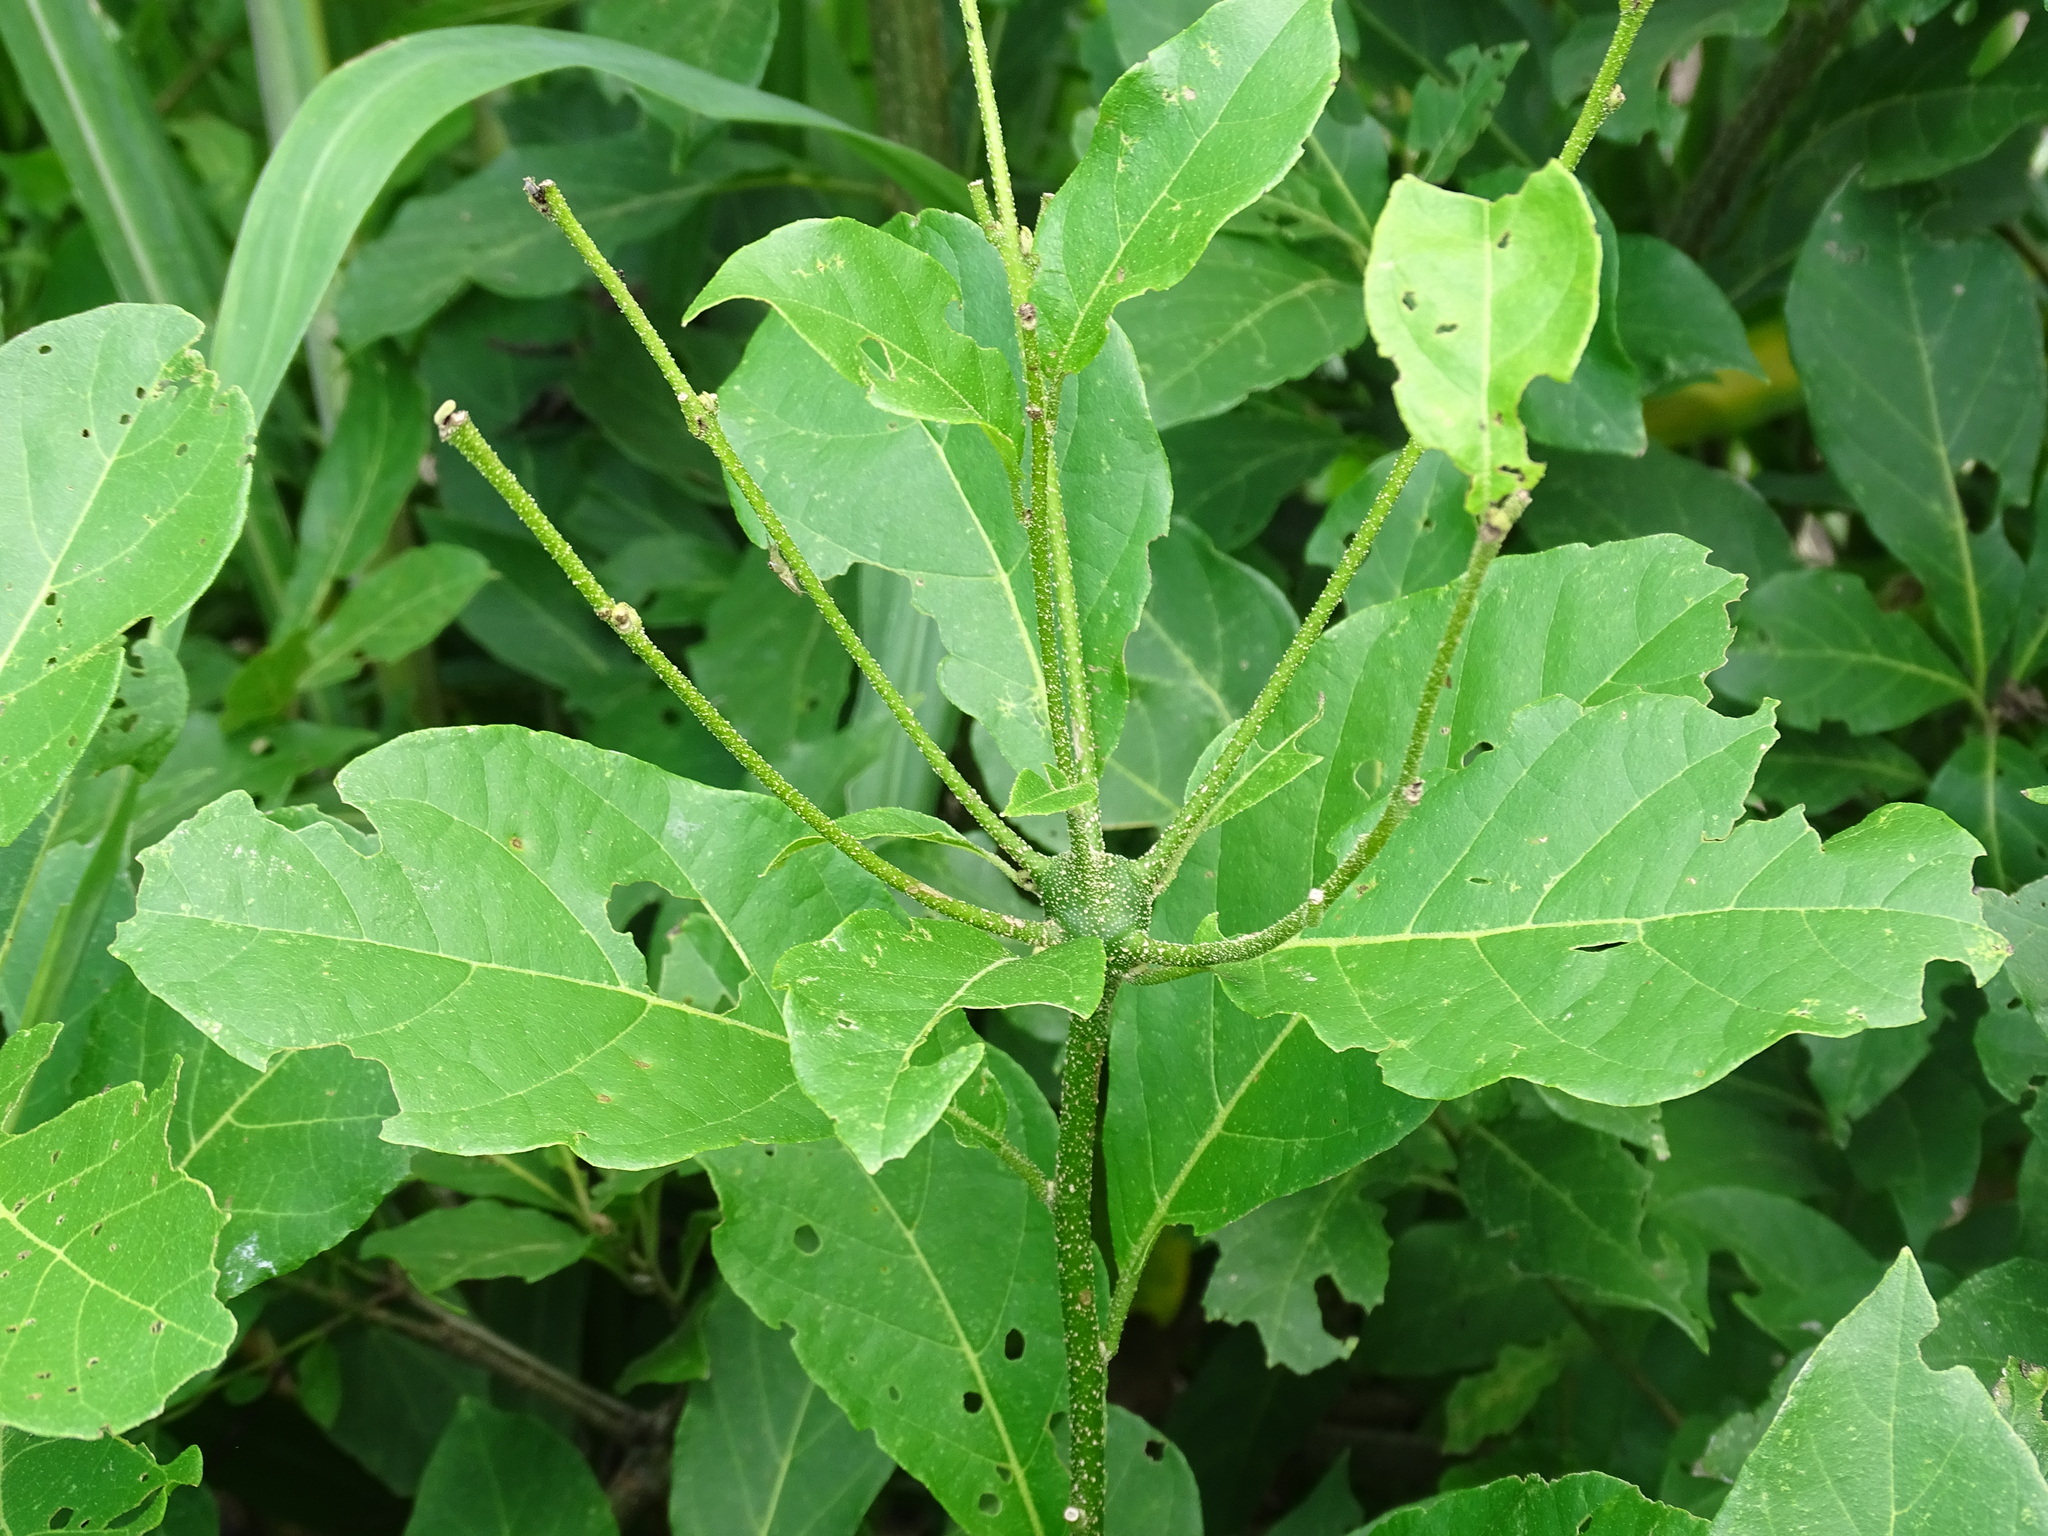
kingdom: Plantae
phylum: Tracheophyta
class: Magnoliopsida
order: Boraginales
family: Cordiaceae
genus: Cordia
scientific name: Cordia alliodora
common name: Spanish elm
